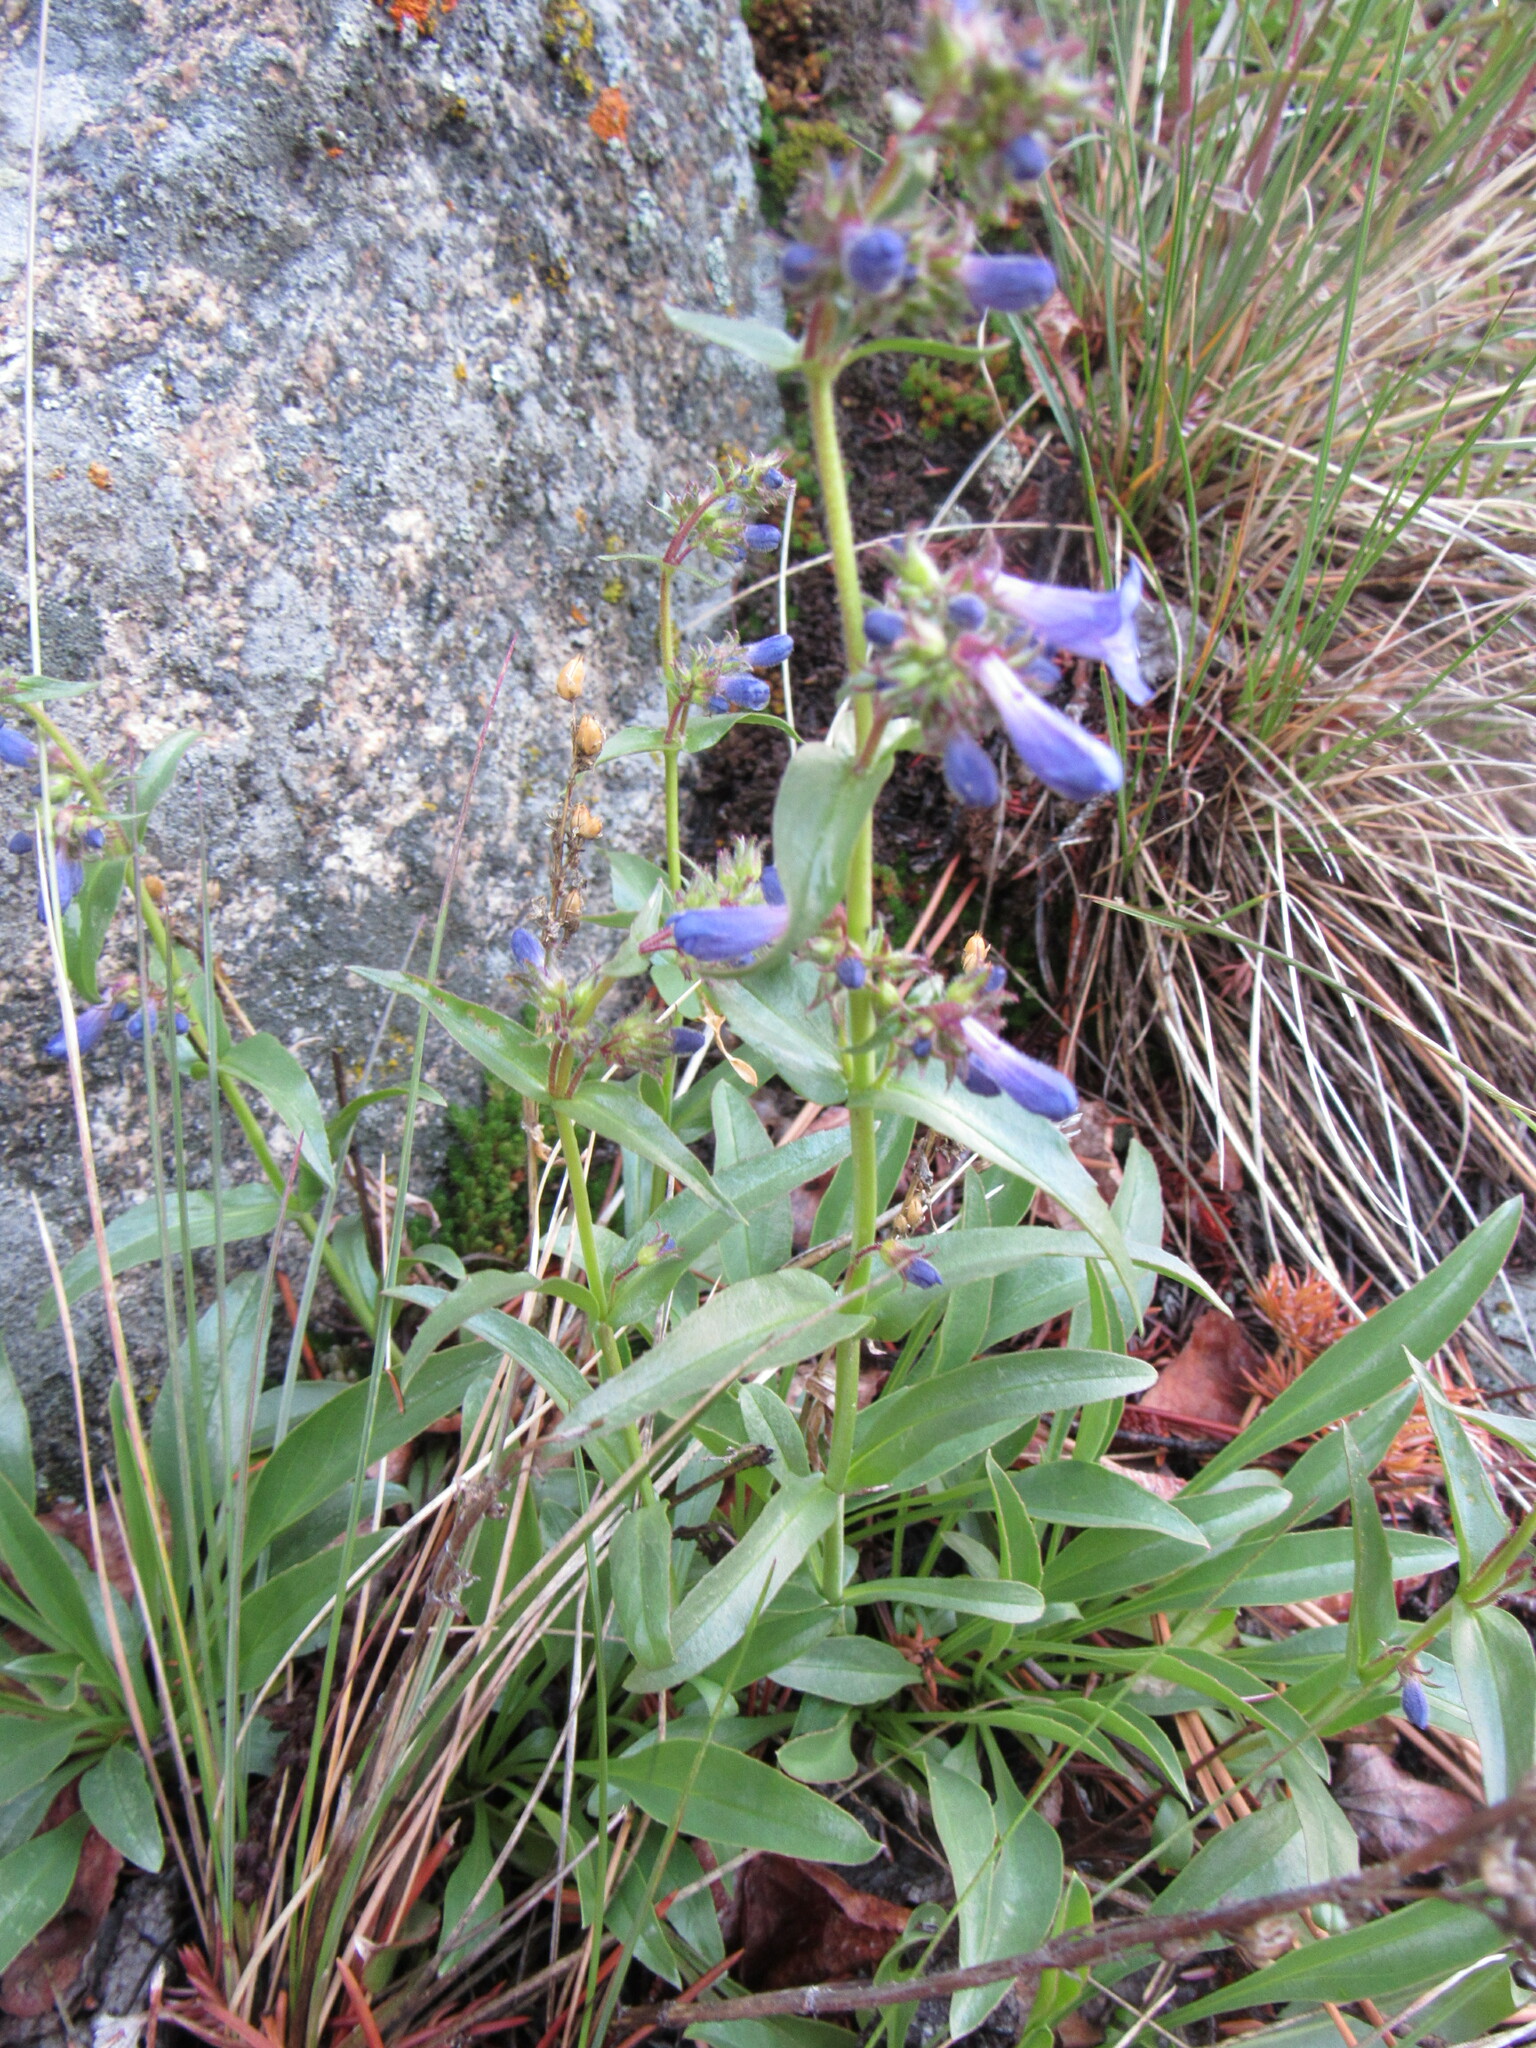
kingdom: Plantae
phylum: Tracheophyta
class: Magnoliopsida
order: Lamiales
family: Plantaginaceae
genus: Penstemon
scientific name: Penstemon virens
